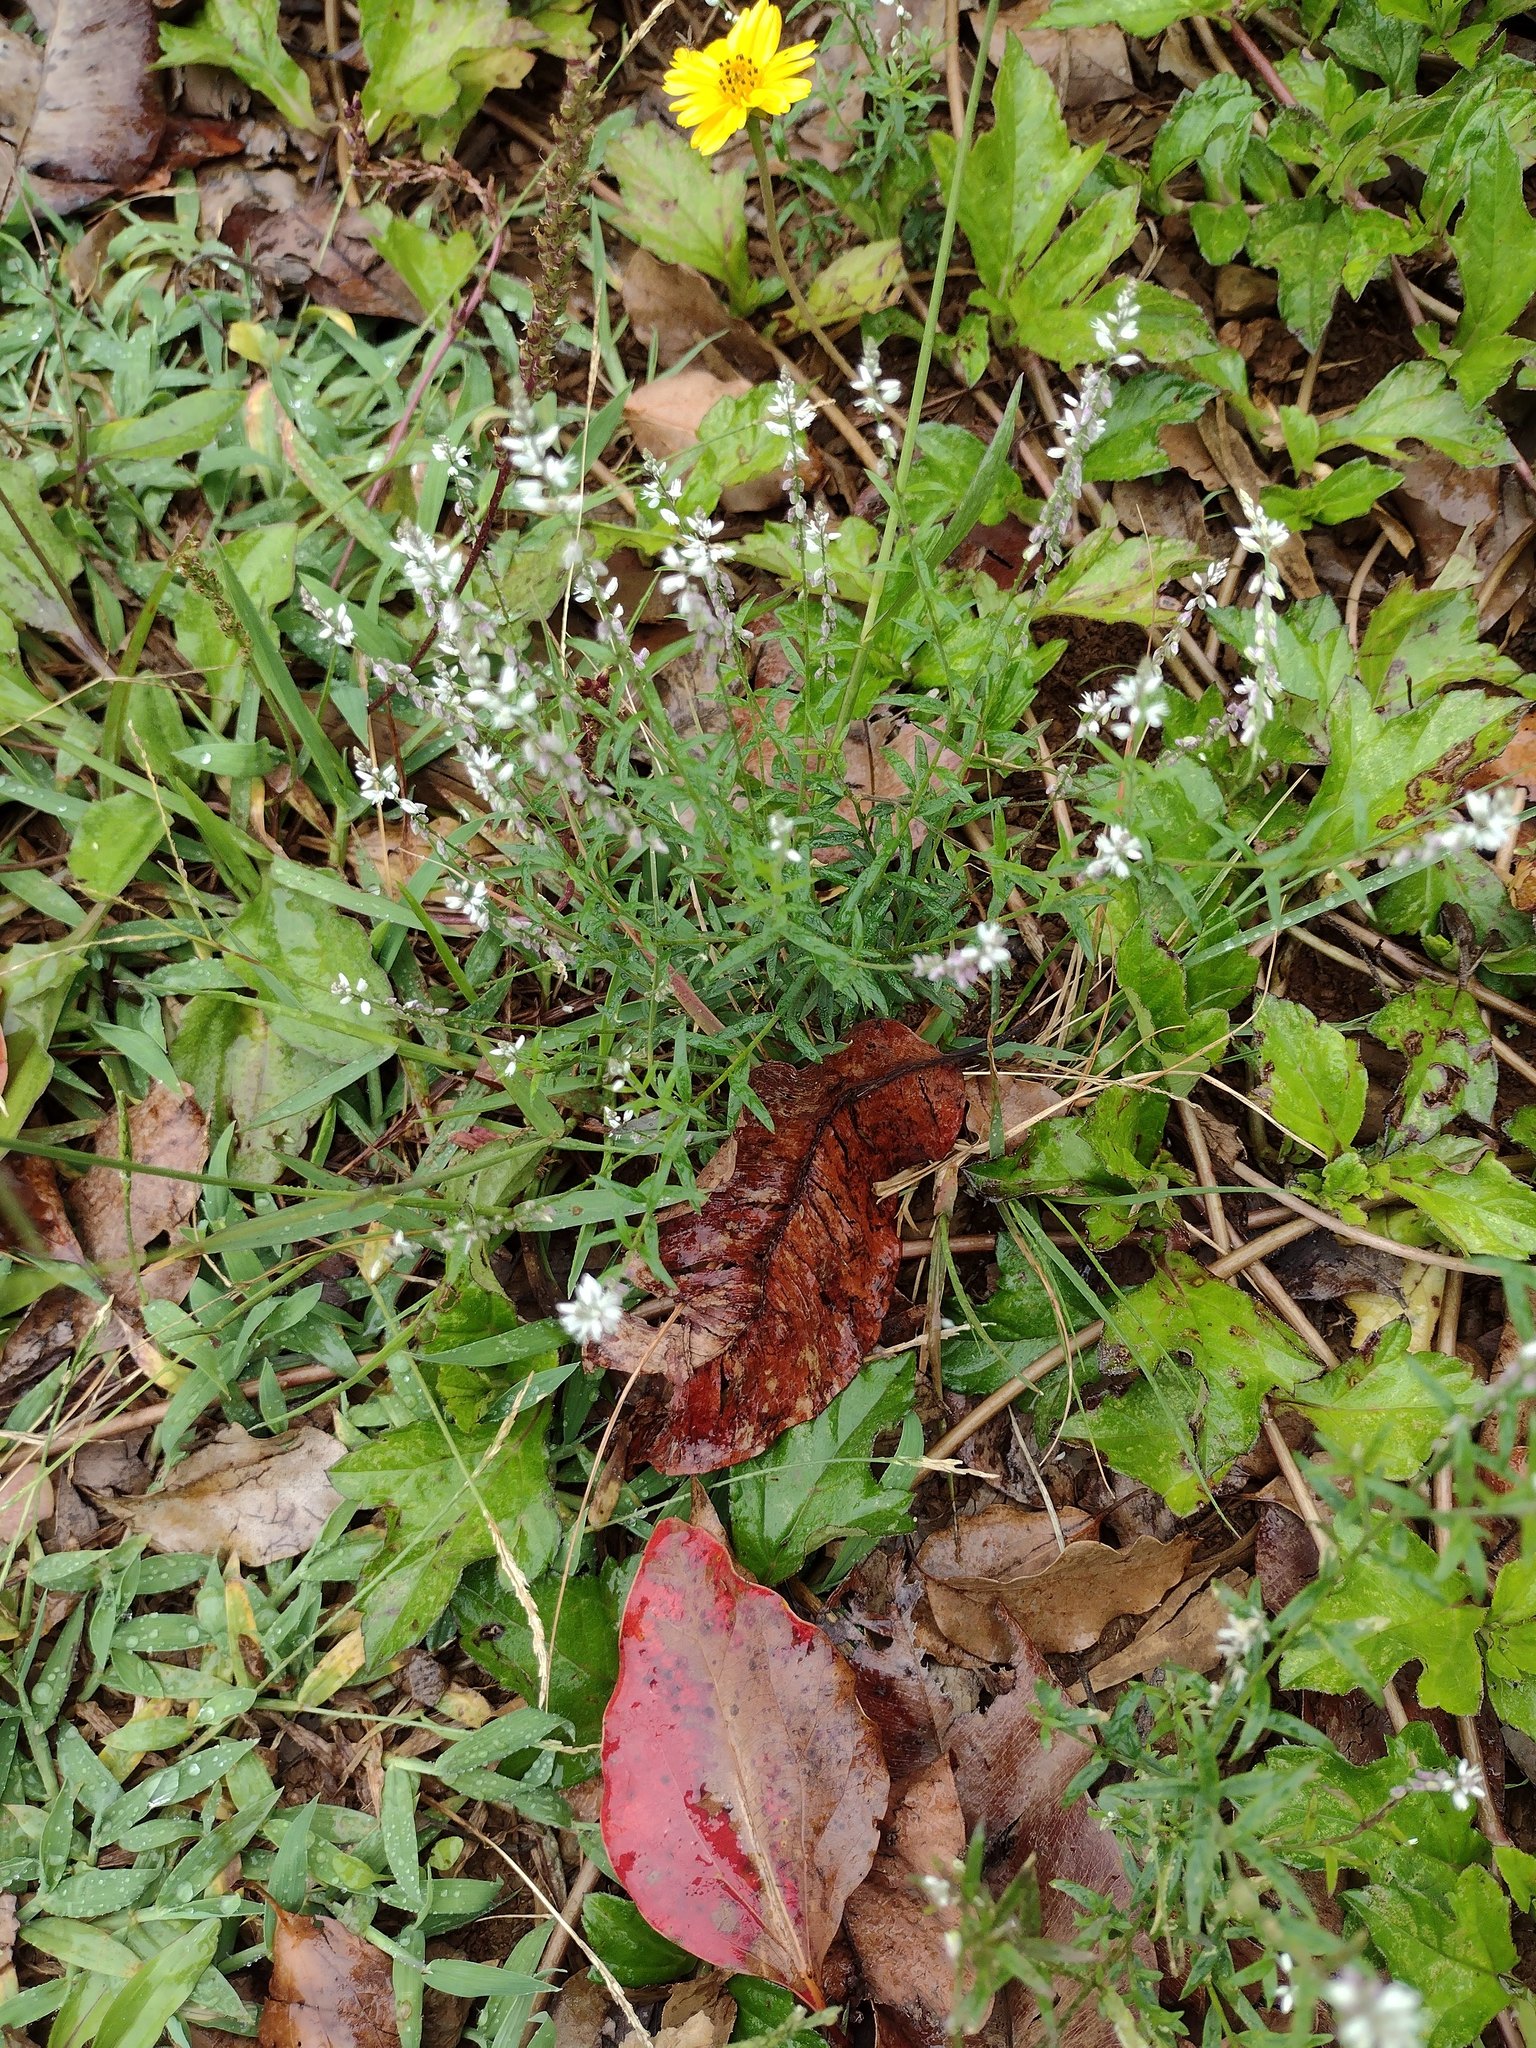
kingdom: Plantae
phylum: Tracheophyta
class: Magnoliopsida
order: Fabales
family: Polygalaceae
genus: Polygala
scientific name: Polygala paniculata
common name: Orosne
